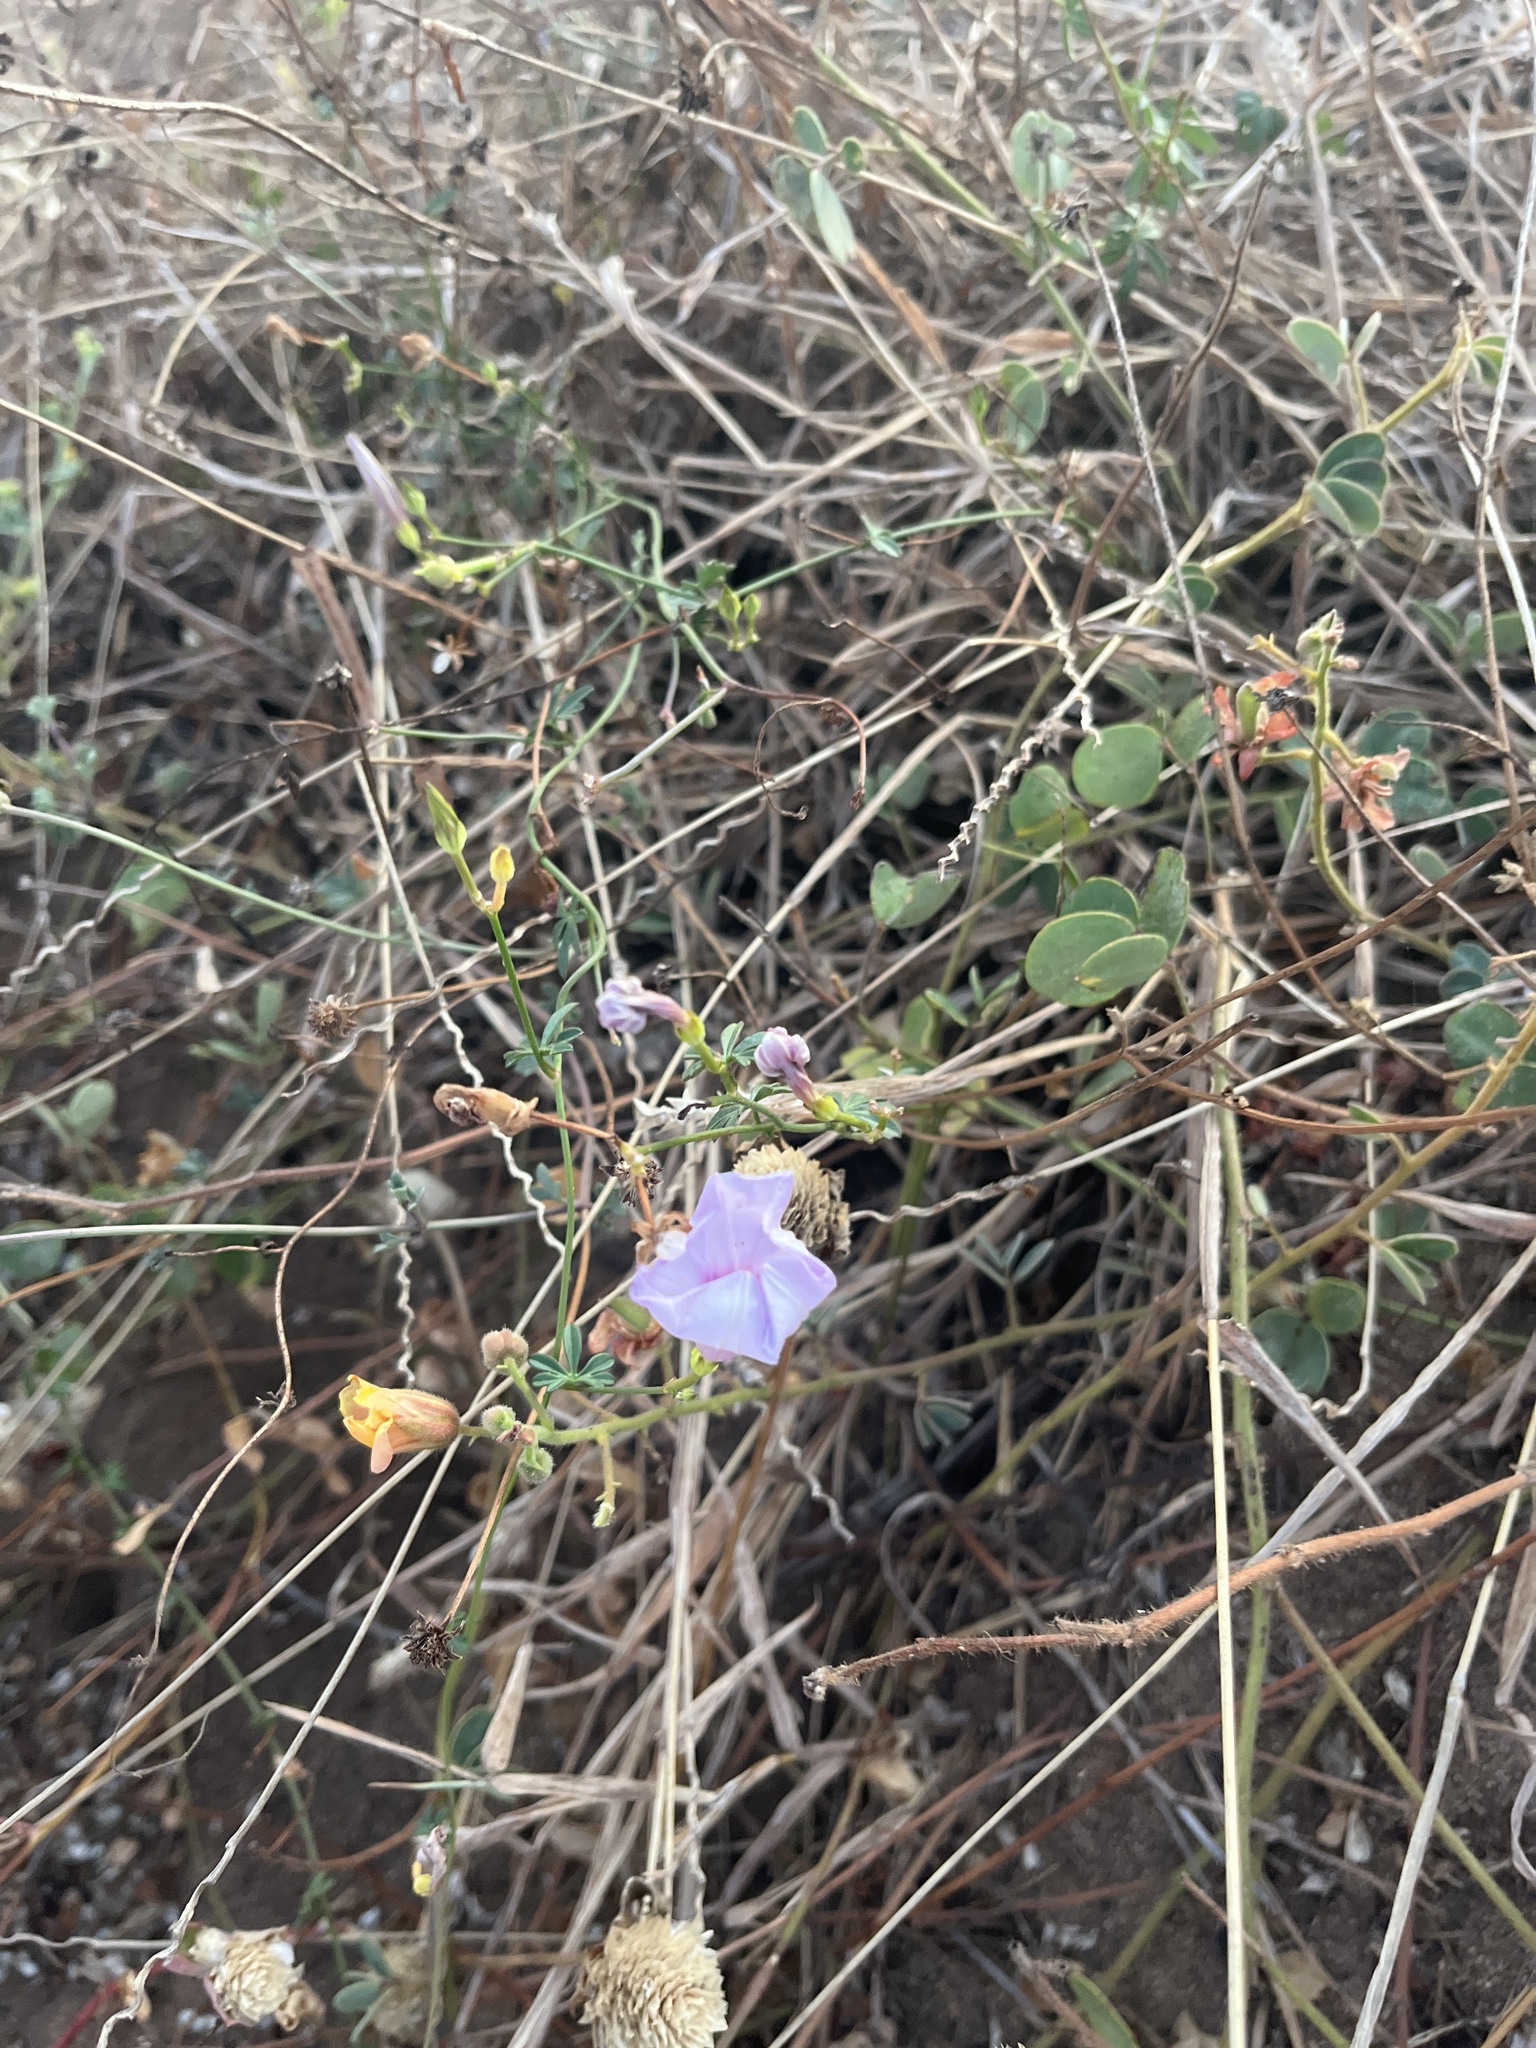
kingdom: Plantae
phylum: Tracheophyta
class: Magnoliopsida
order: Solanales
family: Convolvulaceae
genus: Ipomoea
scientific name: Ipomoea ternifolia
